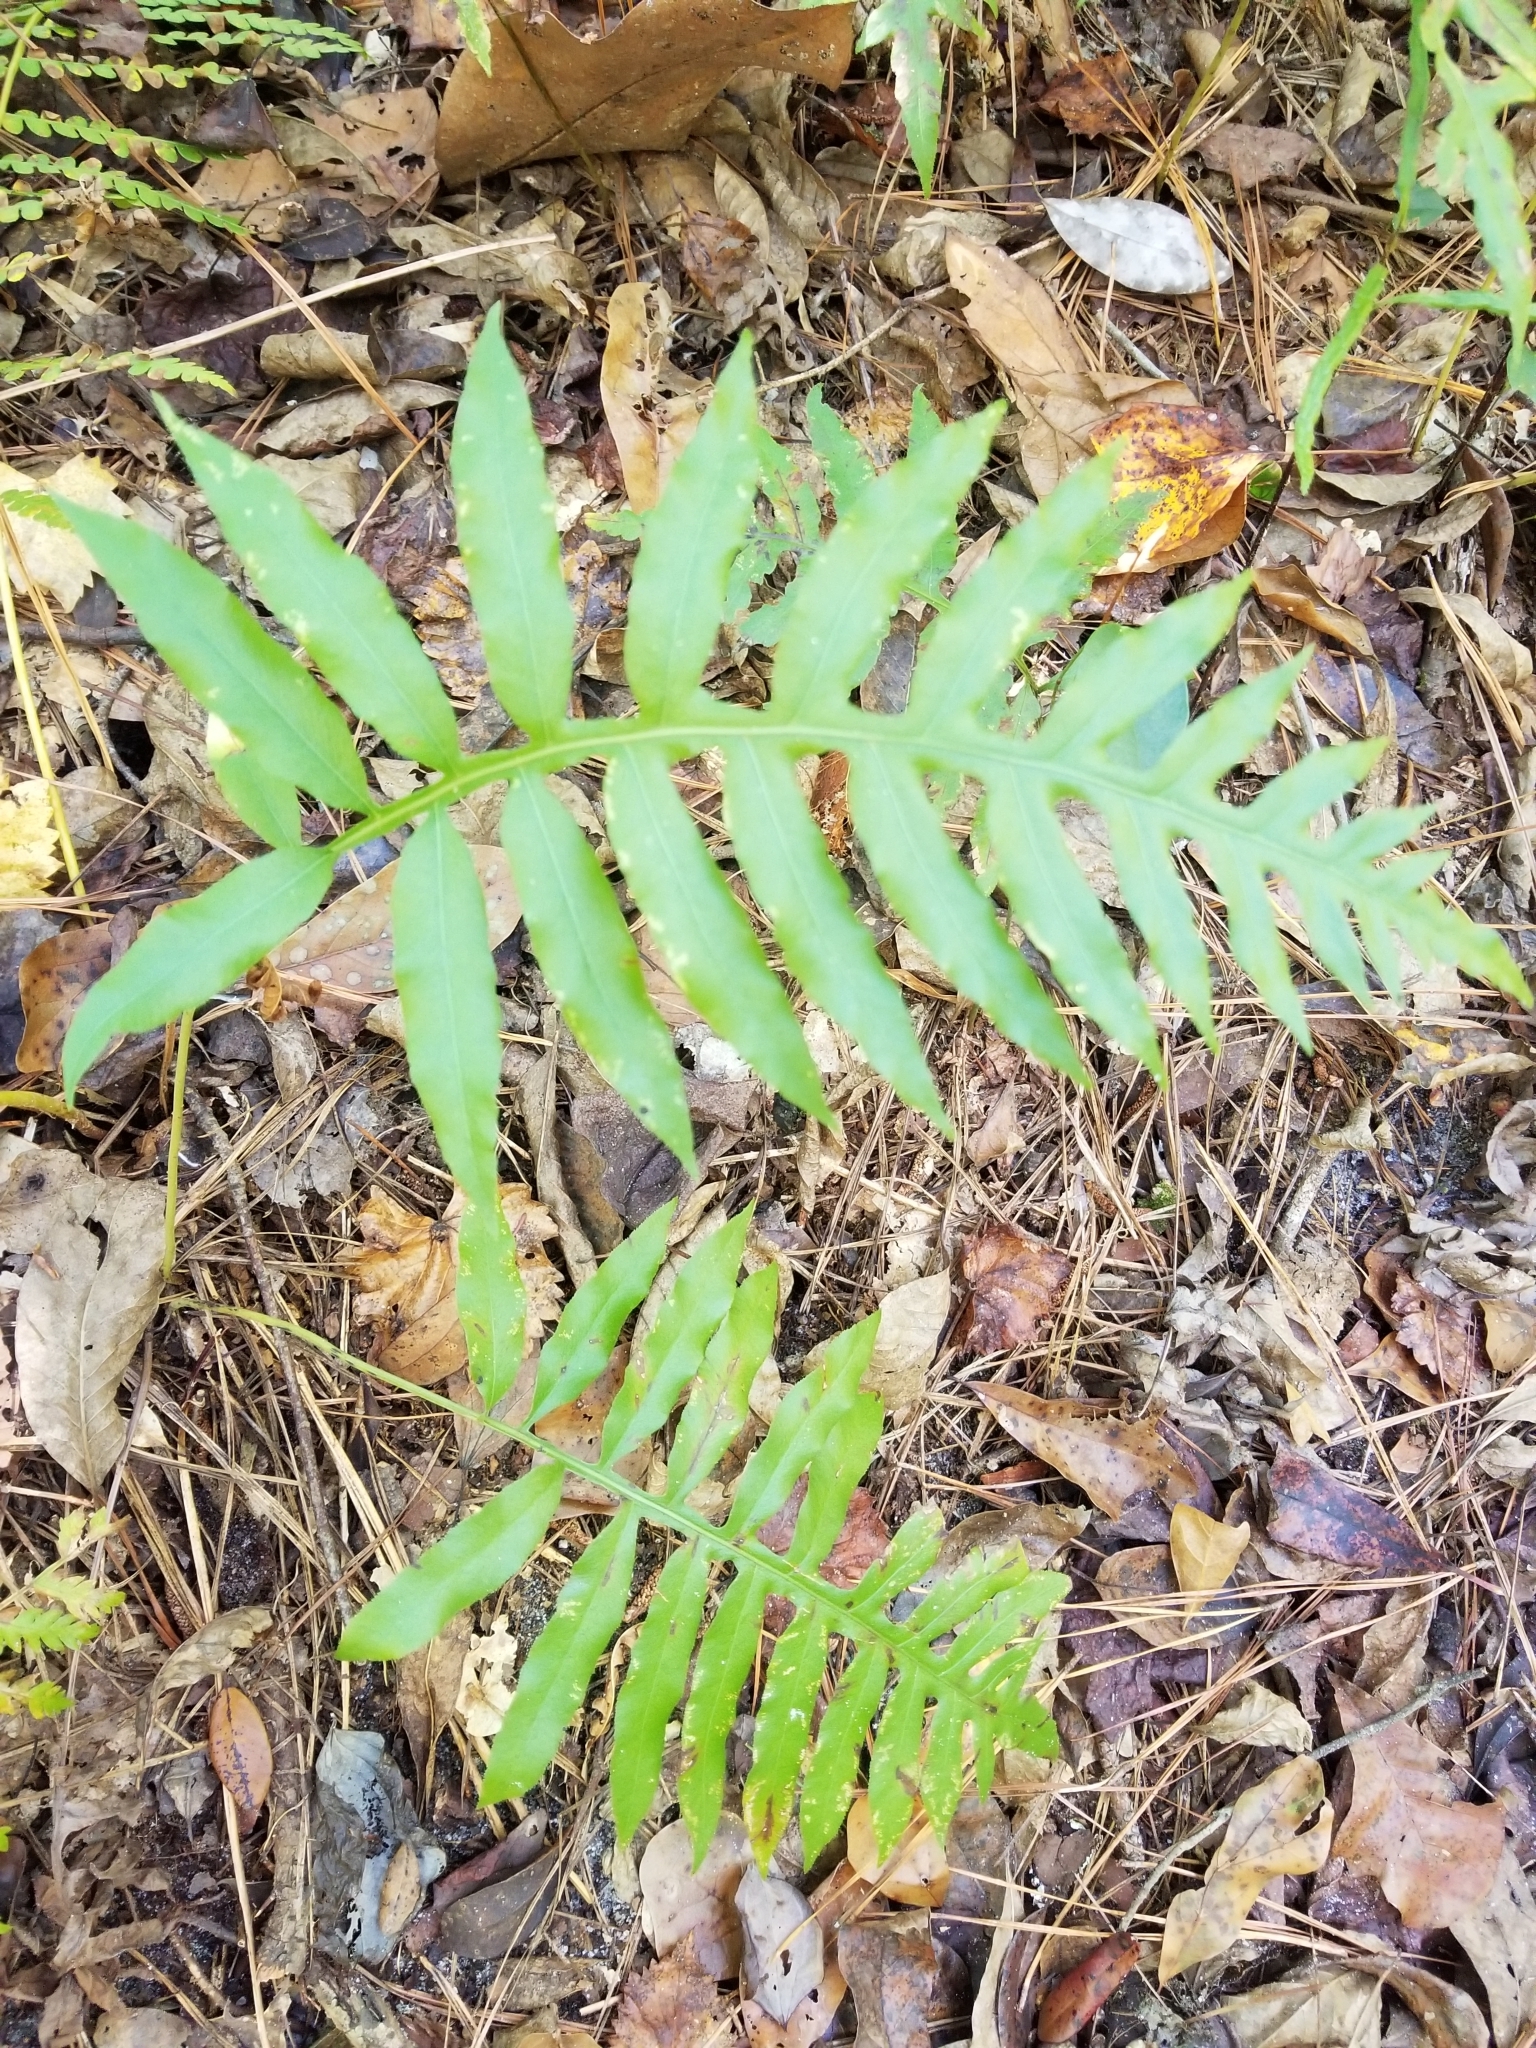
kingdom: Plantae
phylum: Tracheophyta
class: Polypodiopsida
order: Polypodiales
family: Blechnaceae
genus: Lorinseria
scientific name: Lorinseria areolata
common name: Dwarf chain fern
